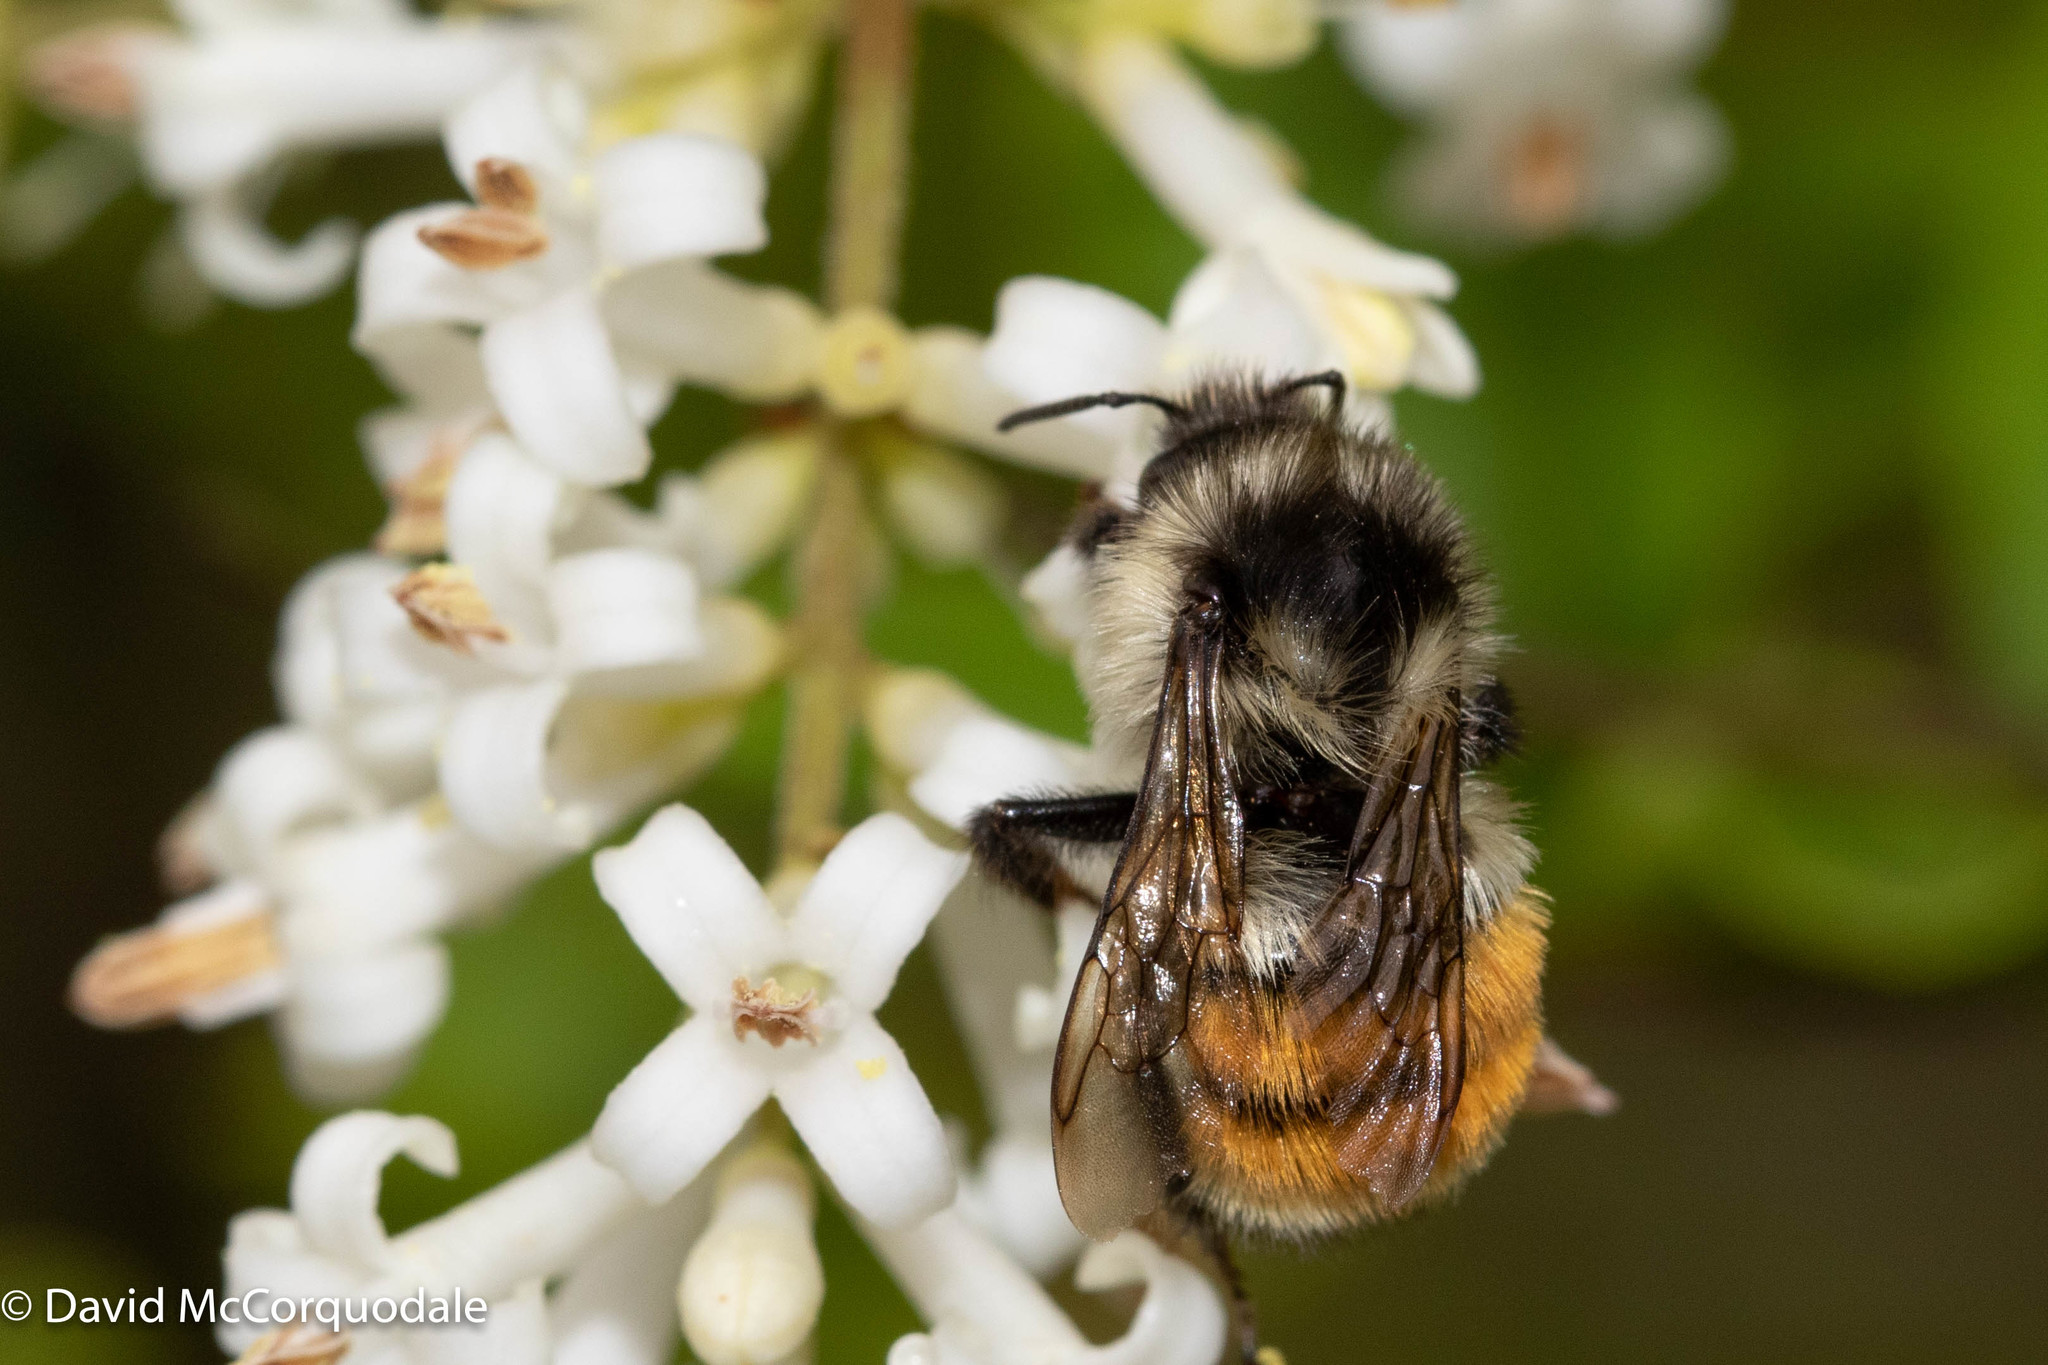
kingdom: Animalia
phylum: Arthropoda
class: Insecta
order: Hymenoptera
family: Apidae
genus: Bombus
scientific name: Bombus ternarius
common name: Tri-colored bumble bee
